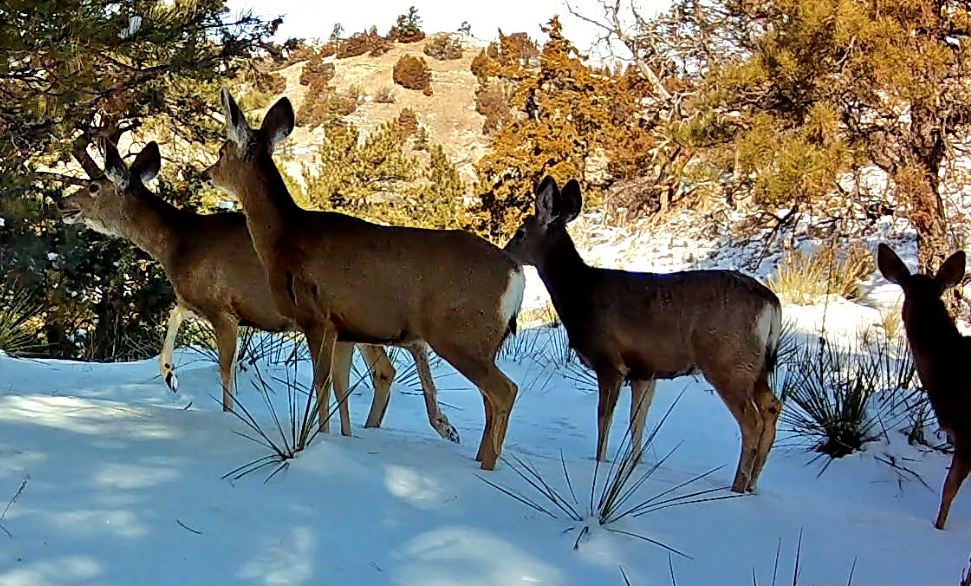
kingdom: Animalia
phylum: Chordata
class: Mammalia
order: Artiodactyla
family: Cervidae
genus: Odocoileus
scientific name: Odocoileus hemionus
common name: Mule deer
